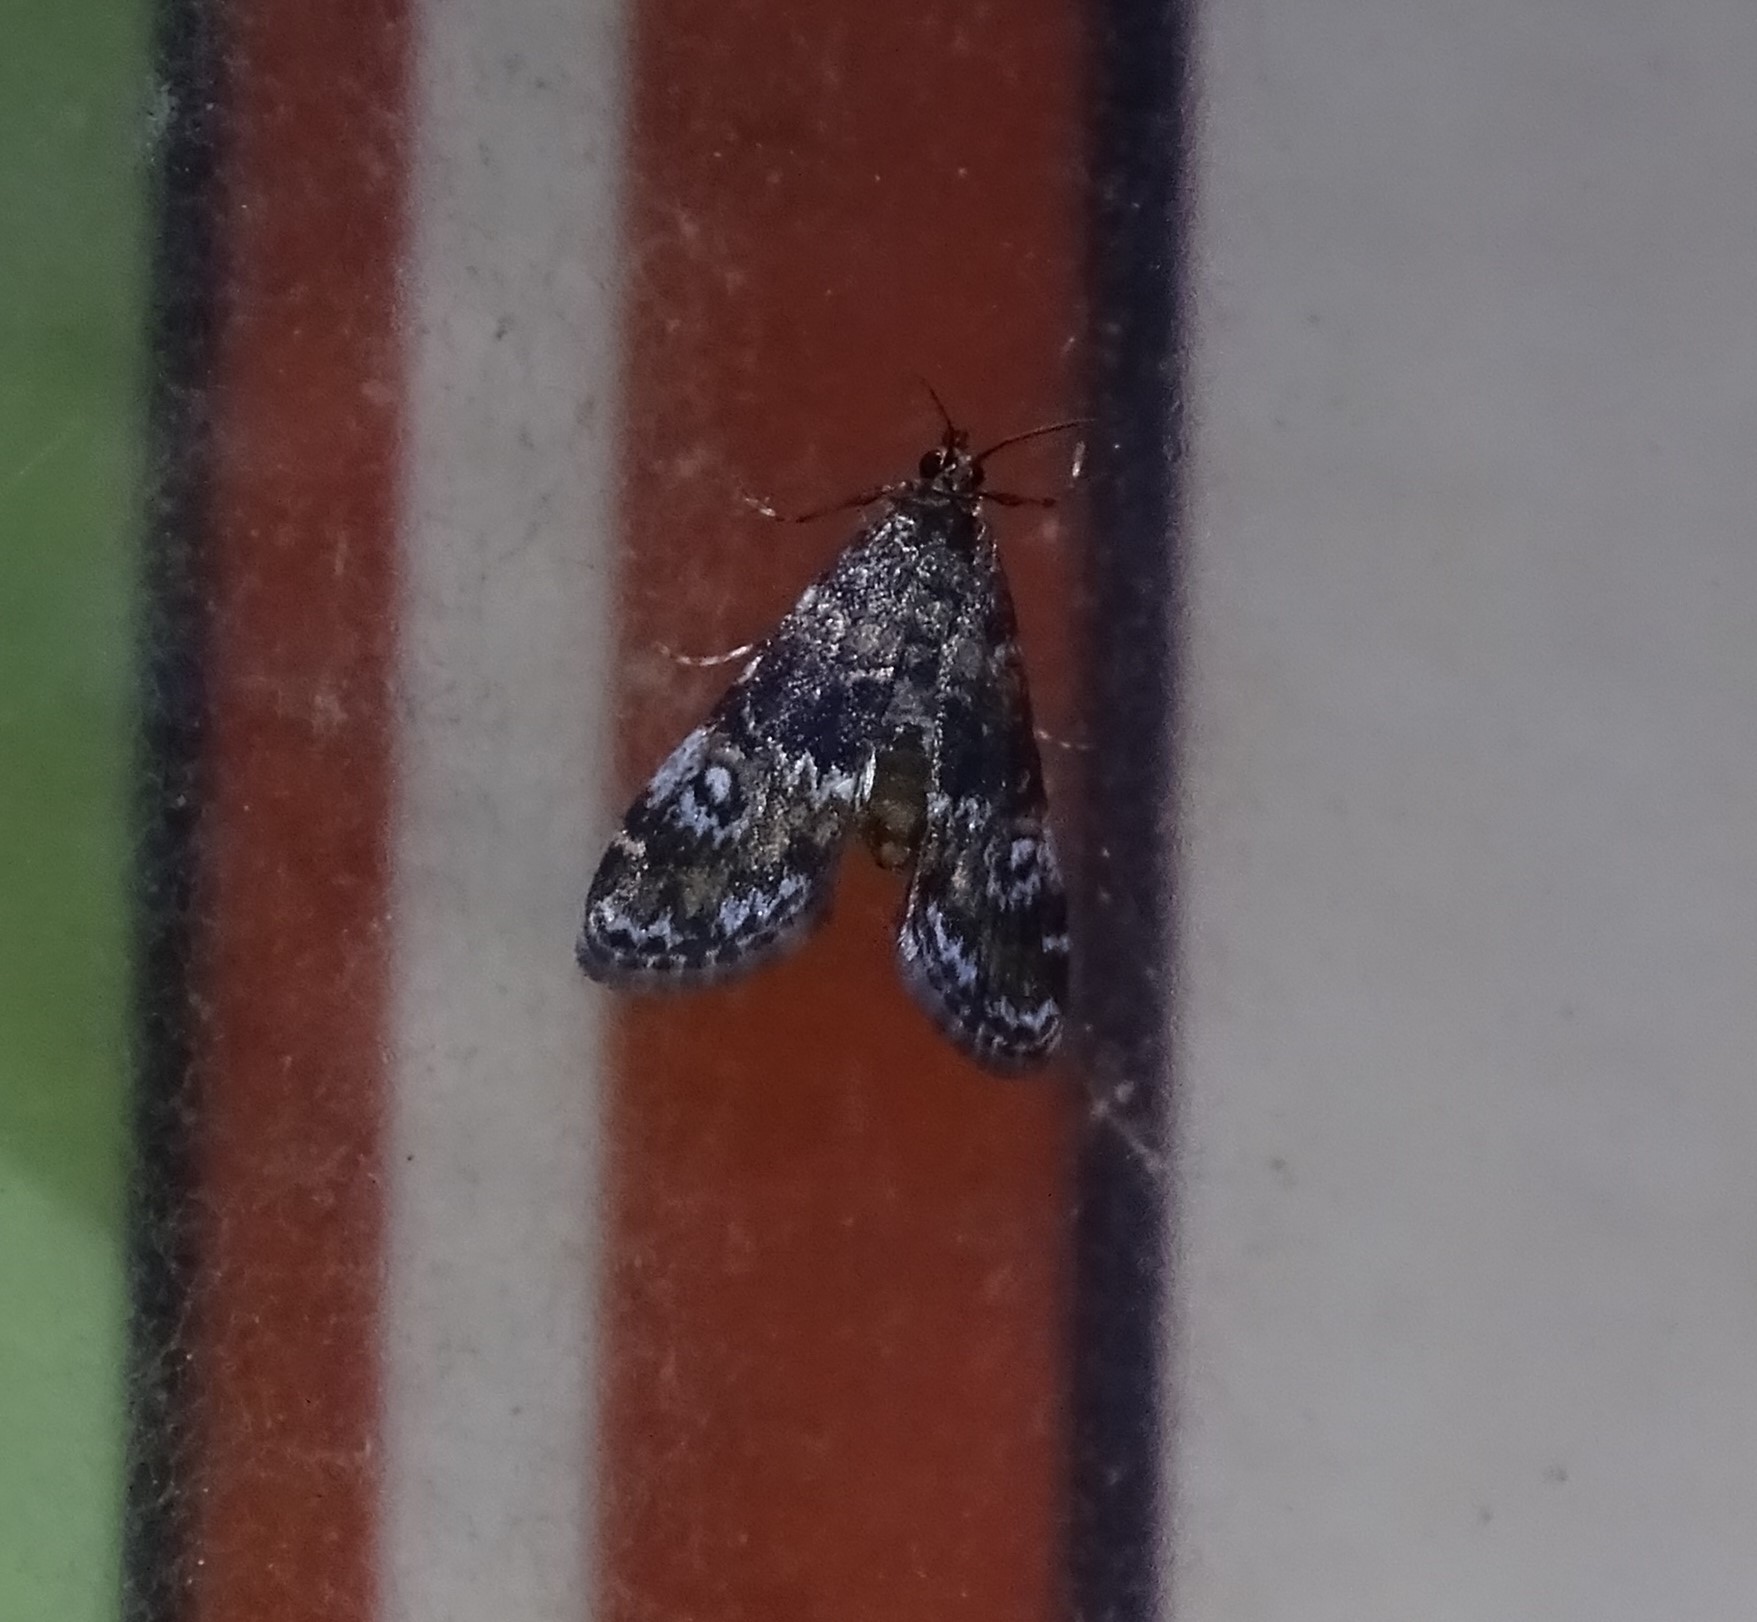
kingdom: Animalia
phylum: Arthropoda
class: Insecta
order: Lepidoptera
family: Crambidae
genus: Elophila
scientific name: Elophila obliteralis
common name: Waterlily leafcutter moth
